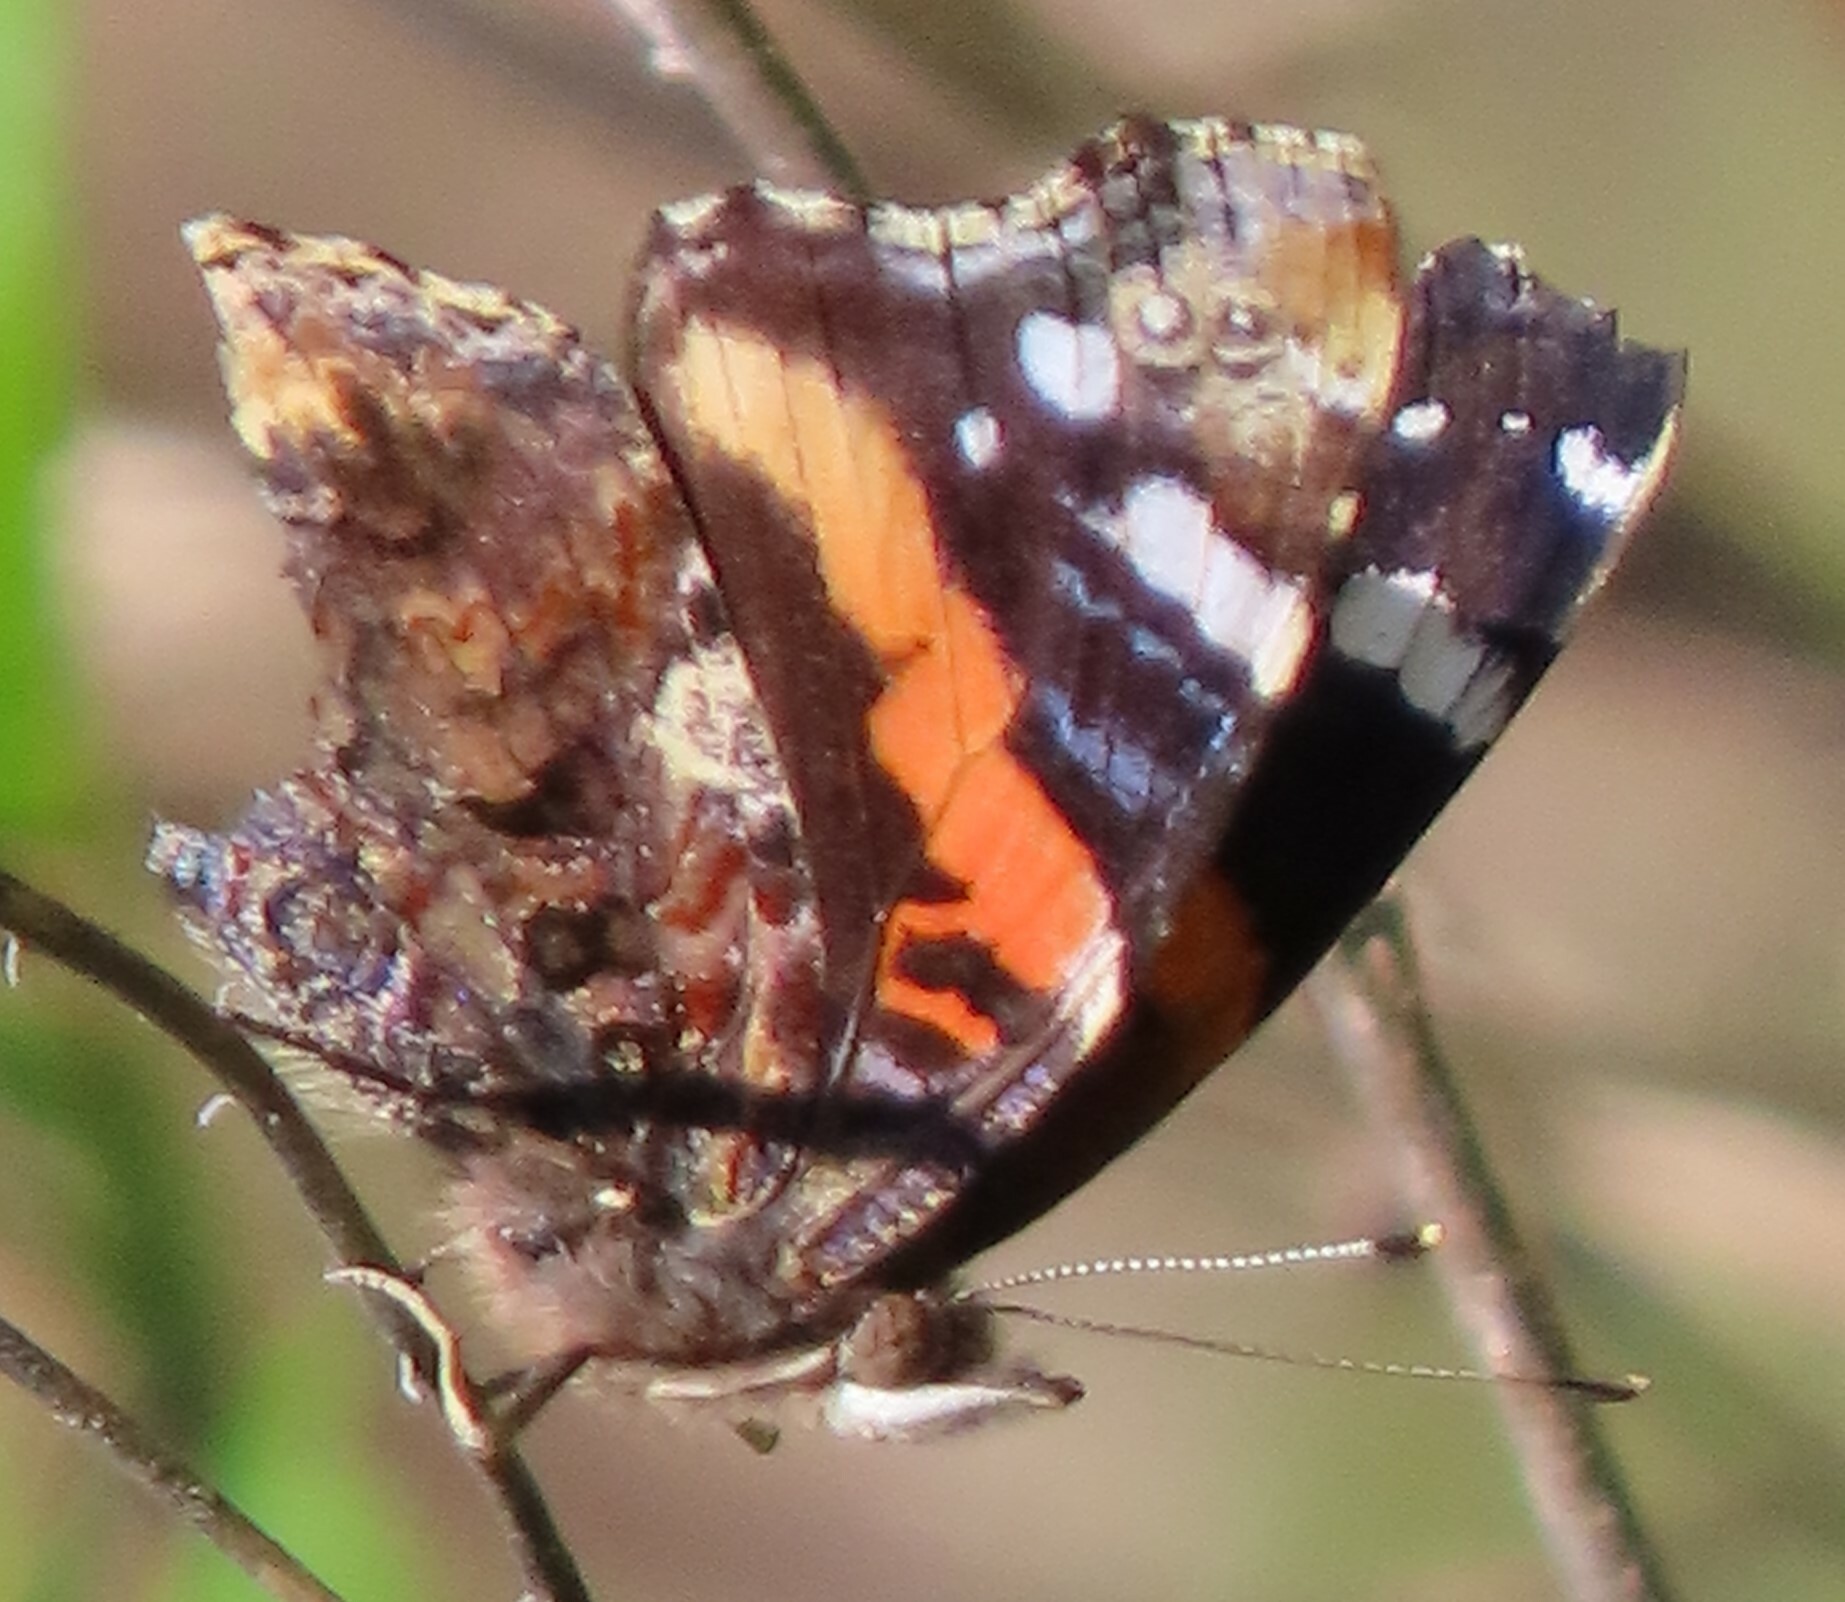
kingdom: Animalia
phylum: Arthropoda
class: Insecta
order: Lepidoptera
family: Nymphalidae
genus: Vanessa
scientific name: Vanessa atalanta
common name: Red admiral
